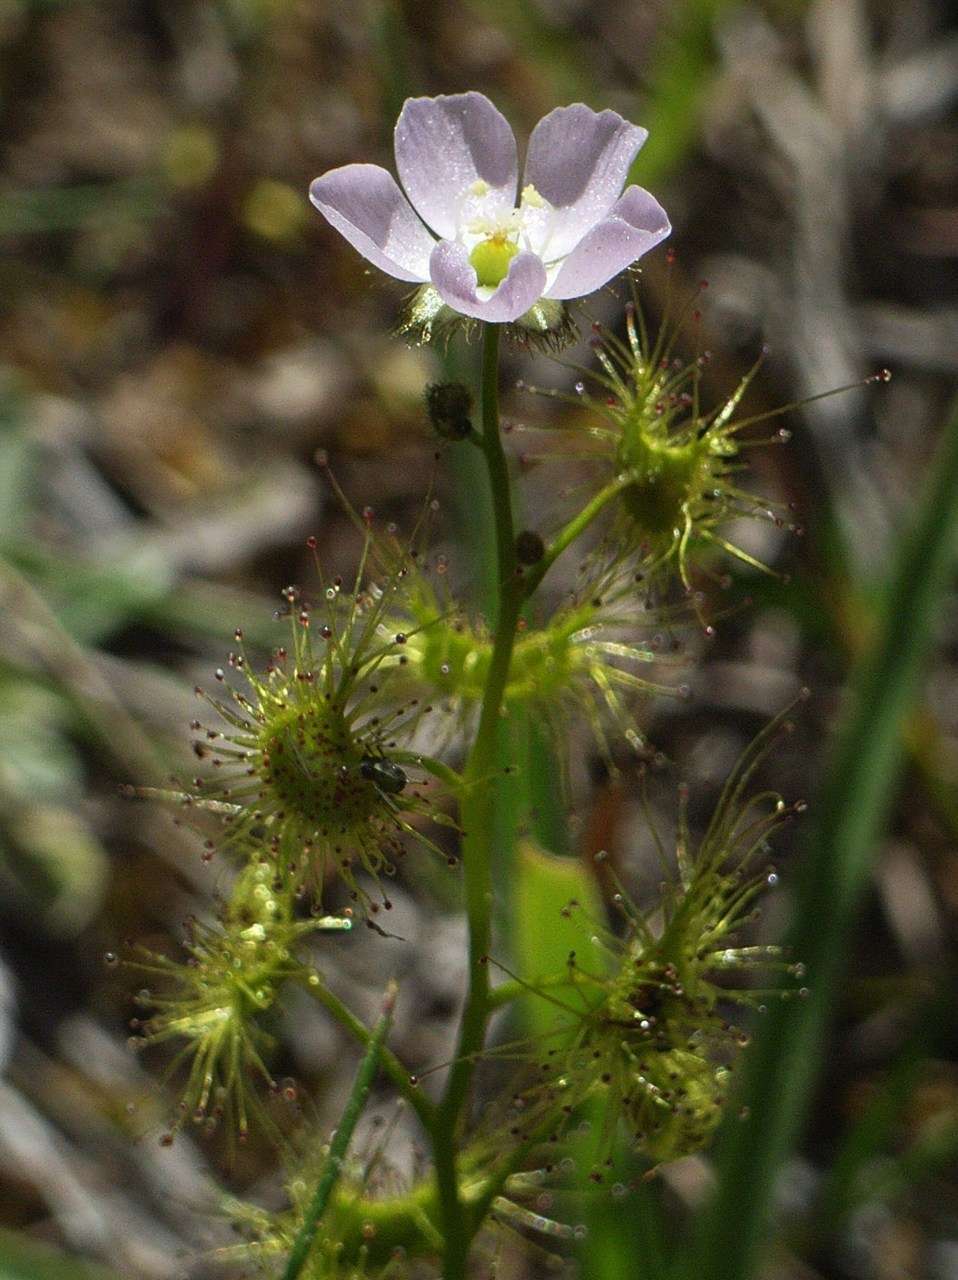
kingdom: Plantae
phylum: Tracheophyta
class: Magnoliopsida
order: Caryophyllales
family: Droseraceae
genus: Drosera
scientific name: Drosera gunniana
